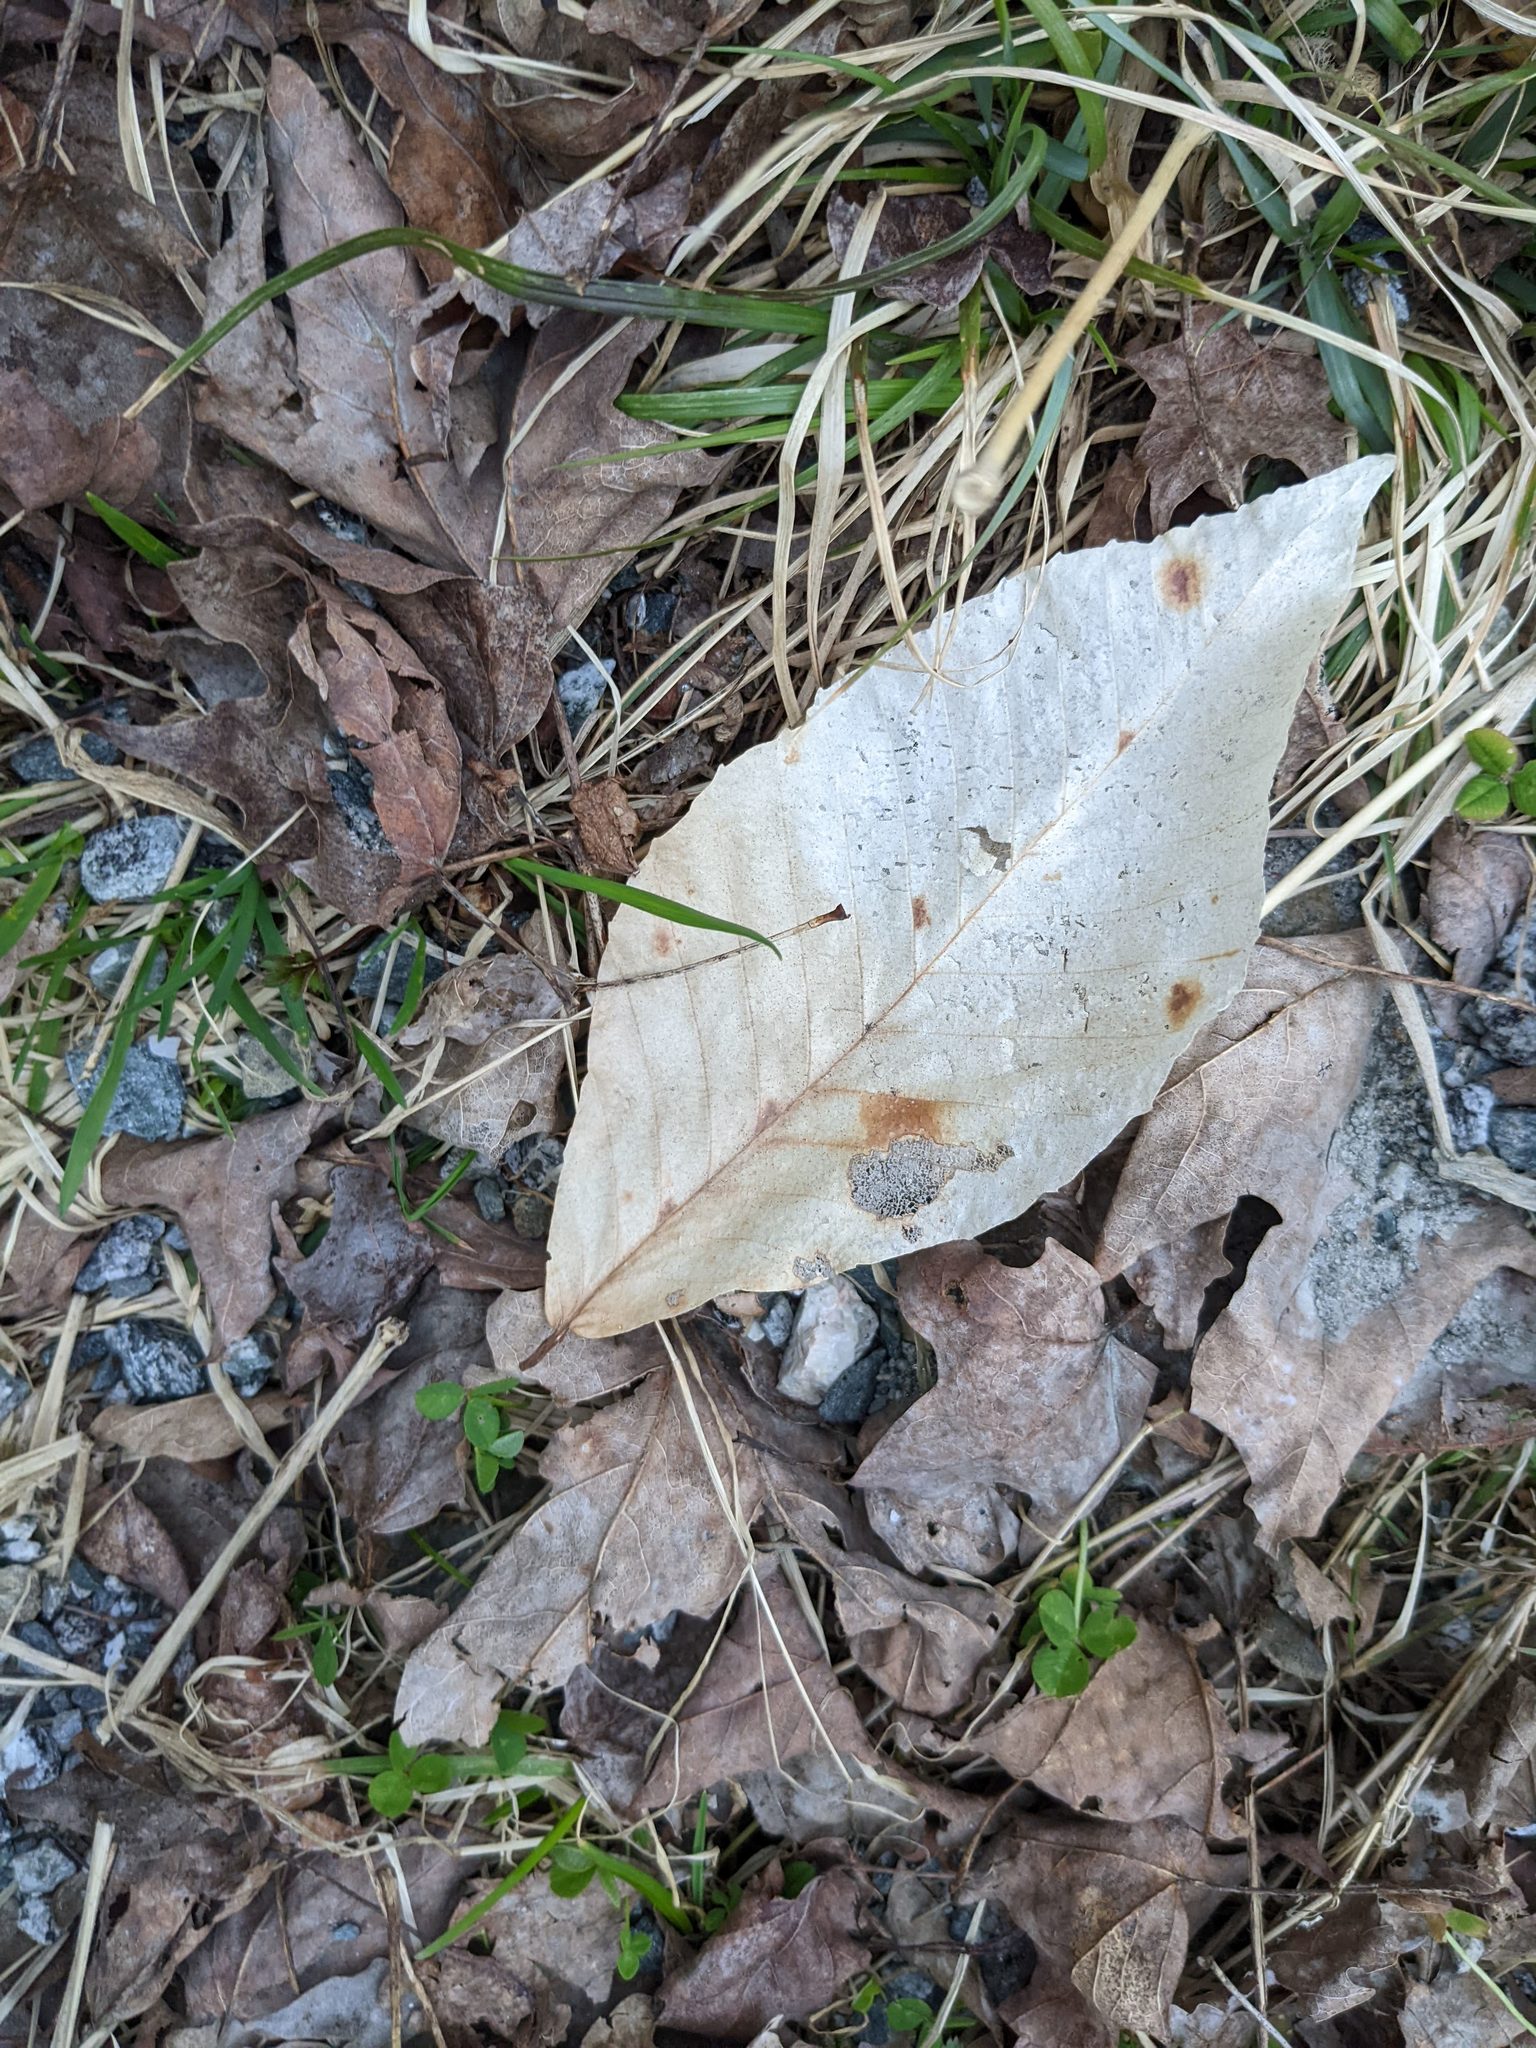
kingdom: Plantae
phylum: Tracheophyta
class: Magnoliopsida
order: Fagales
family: Fagaceae
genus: Fagus
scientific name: Fagus grandifolia
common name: American beech
